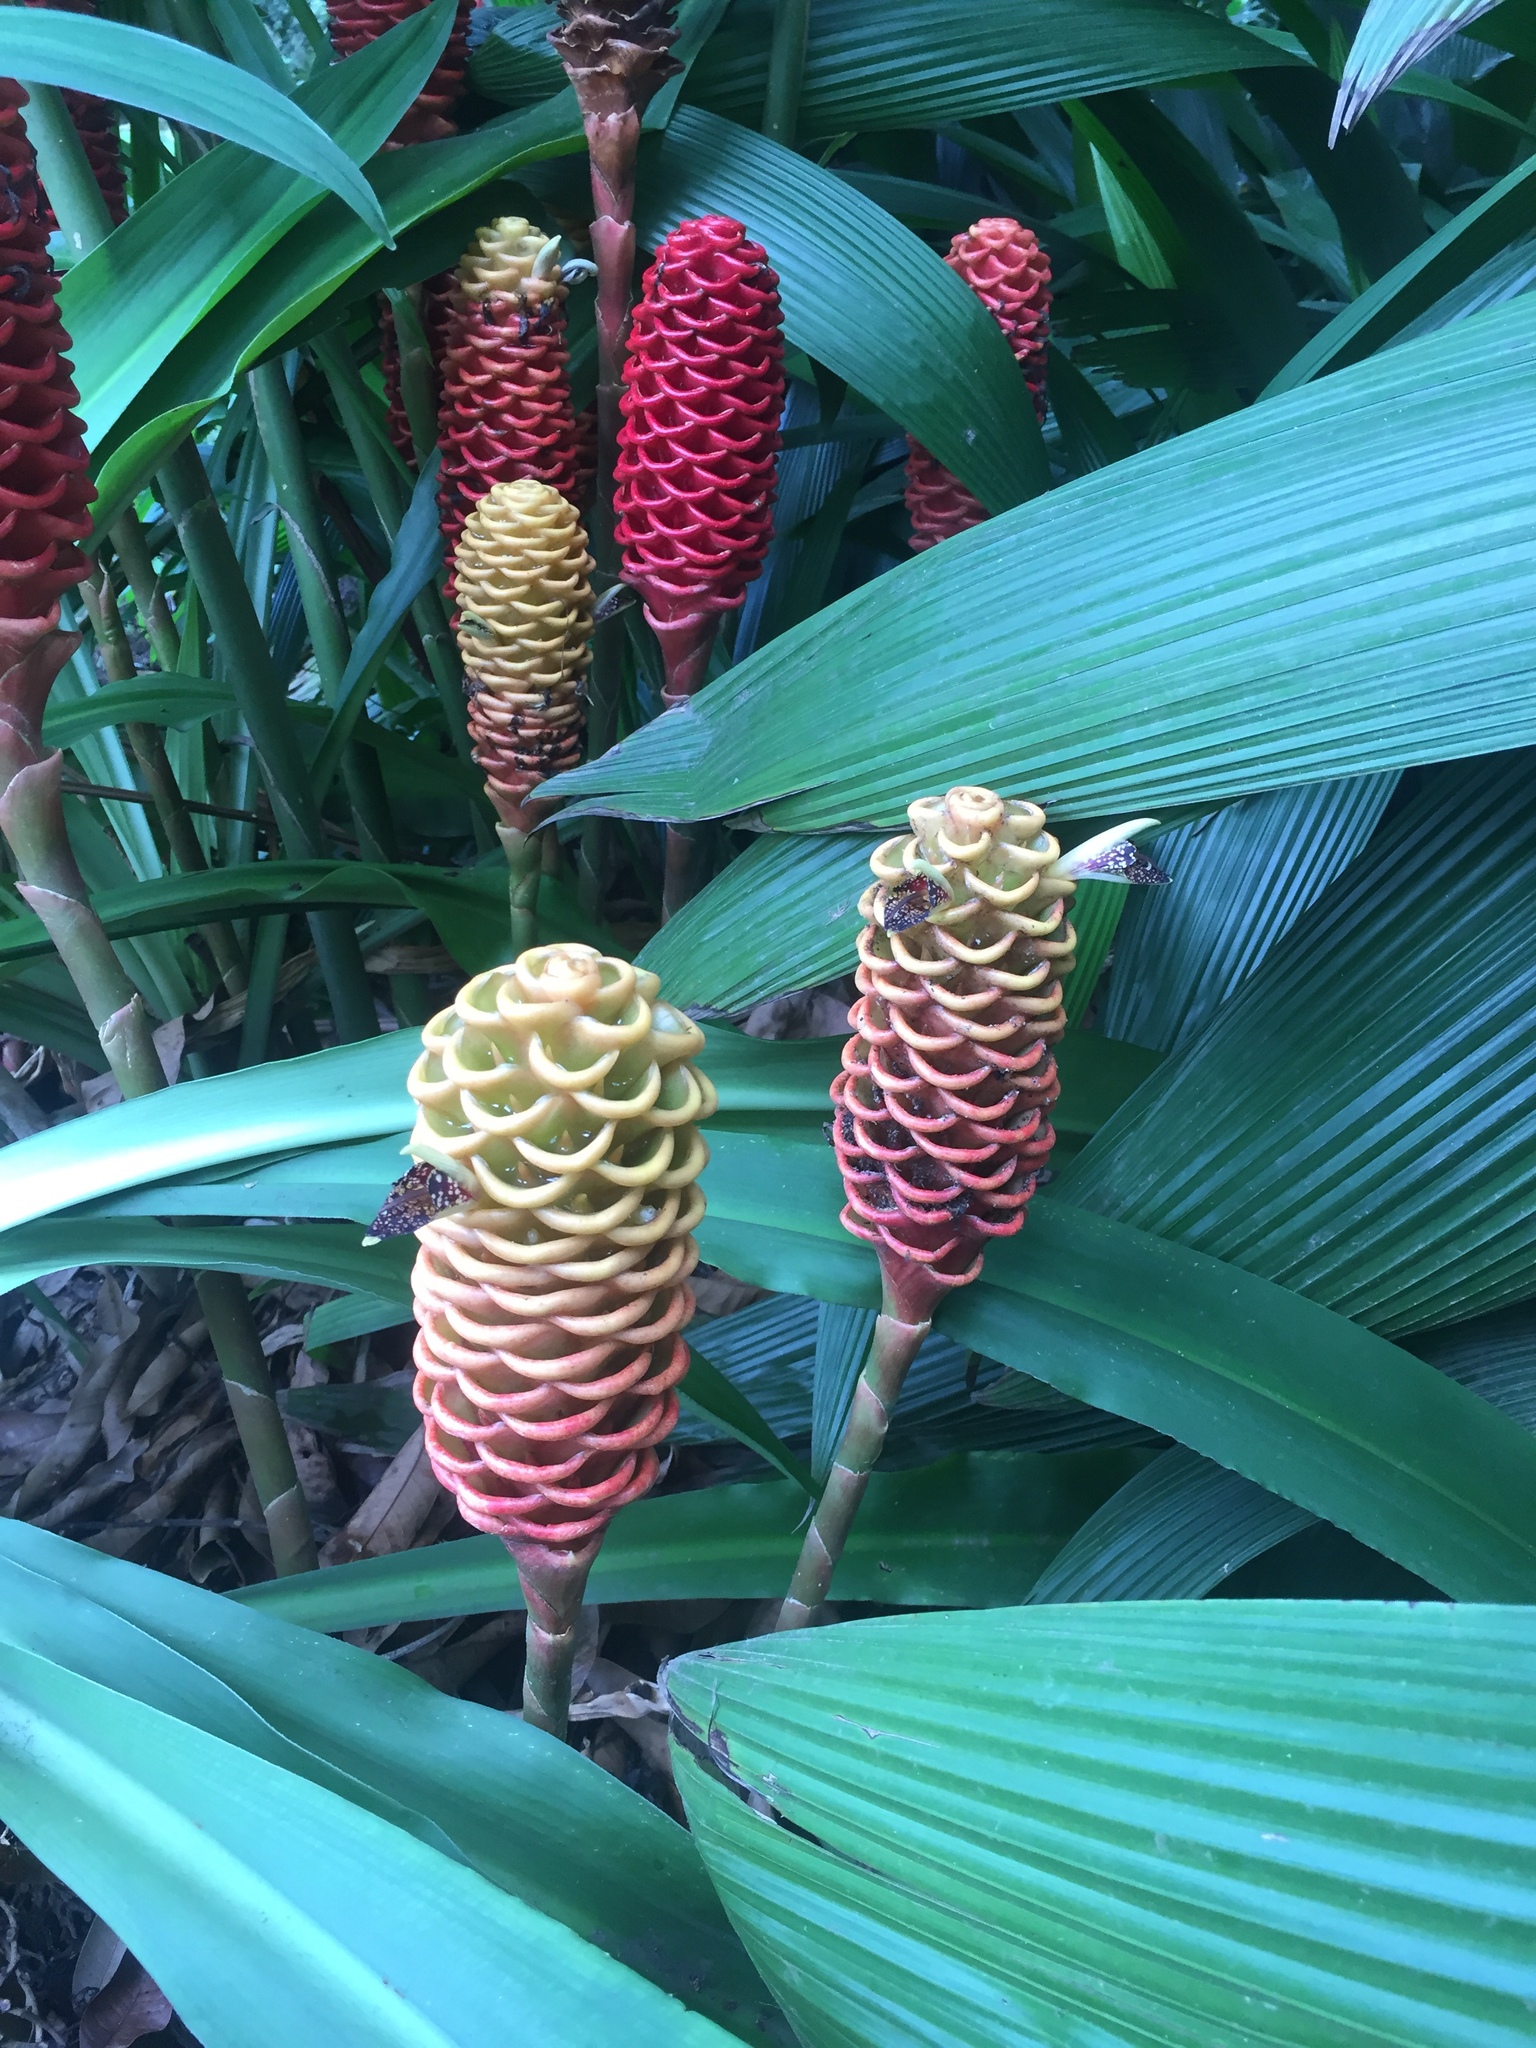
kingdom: Plantae
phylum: Tracheophyta
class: Liliopsida
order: Zingiberales
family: Zingiberaceae
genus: Zingiber
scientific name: Zingiber spectabile
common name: Beehive ginger
